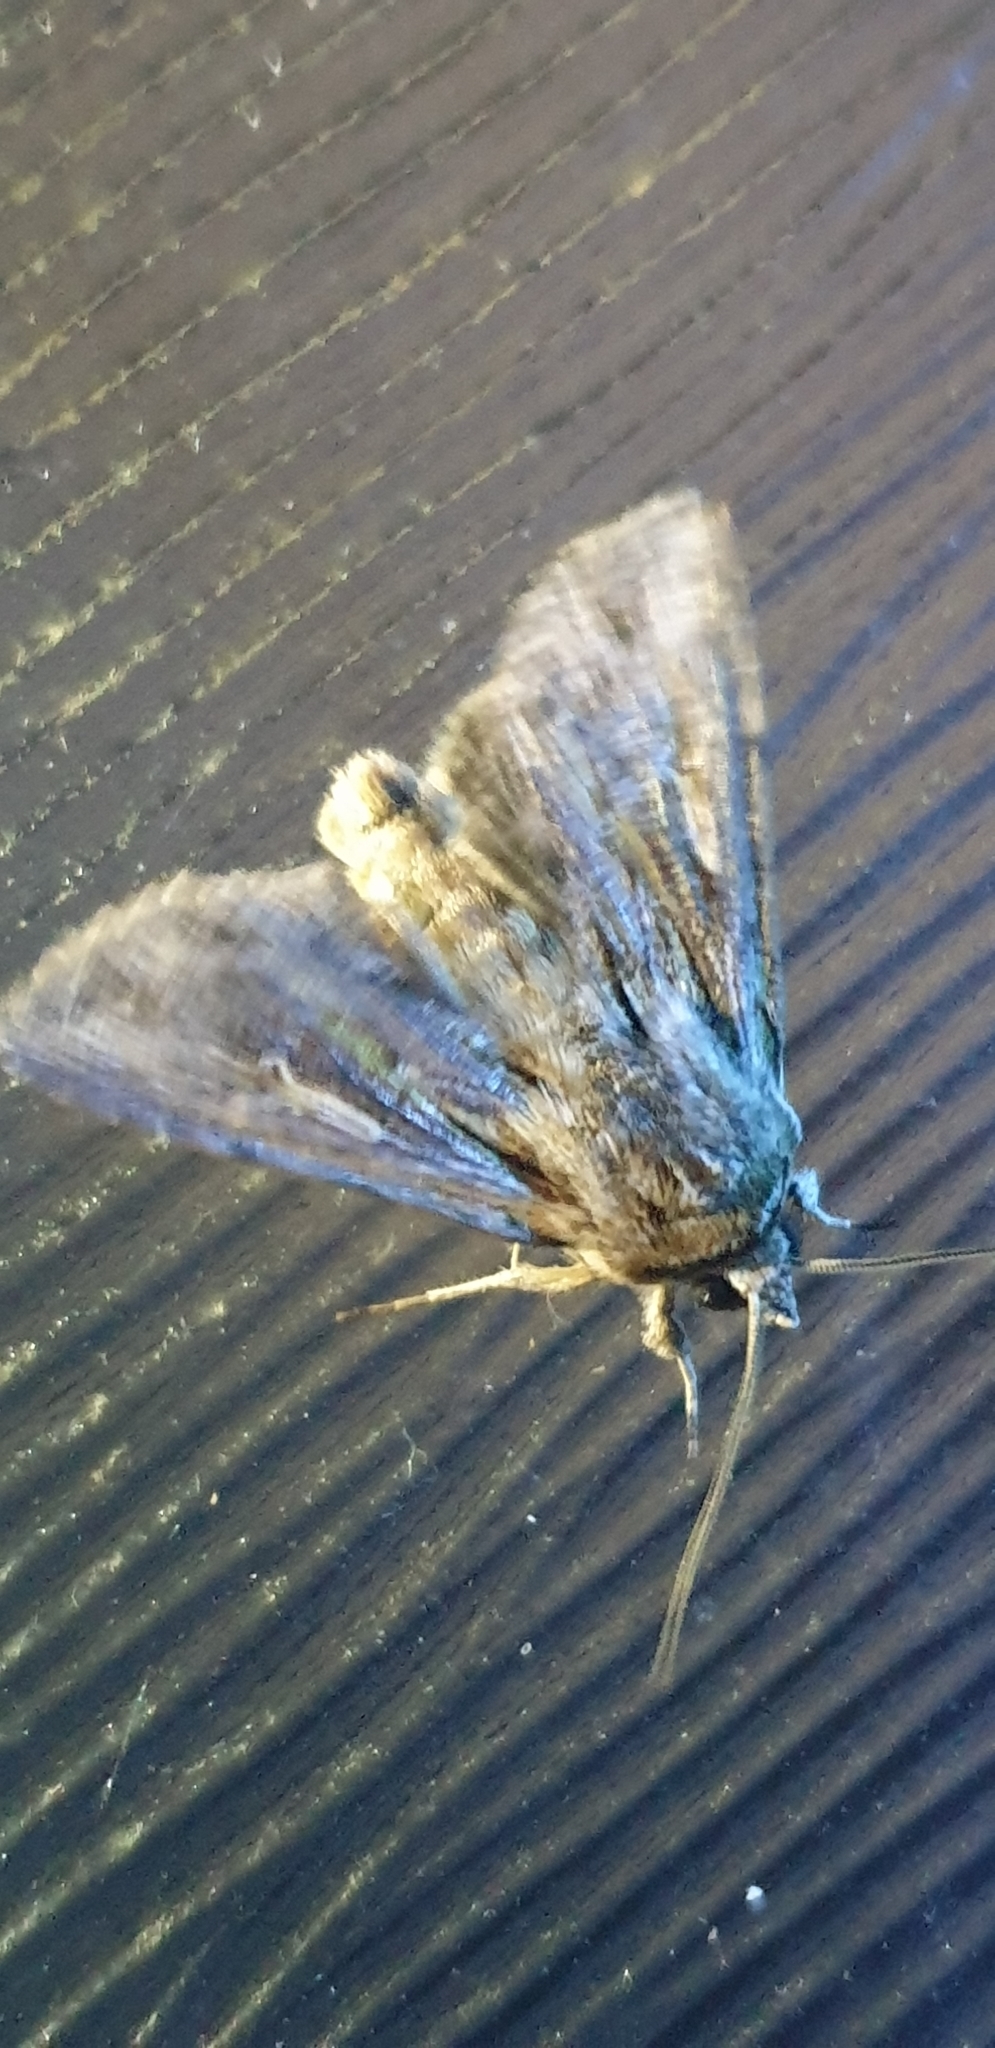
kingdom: Animalia
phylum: Arthropoda
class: Insecta
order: Lepidoptera
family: Noctuidae
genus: Persectania
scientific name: Persectania ewingii
